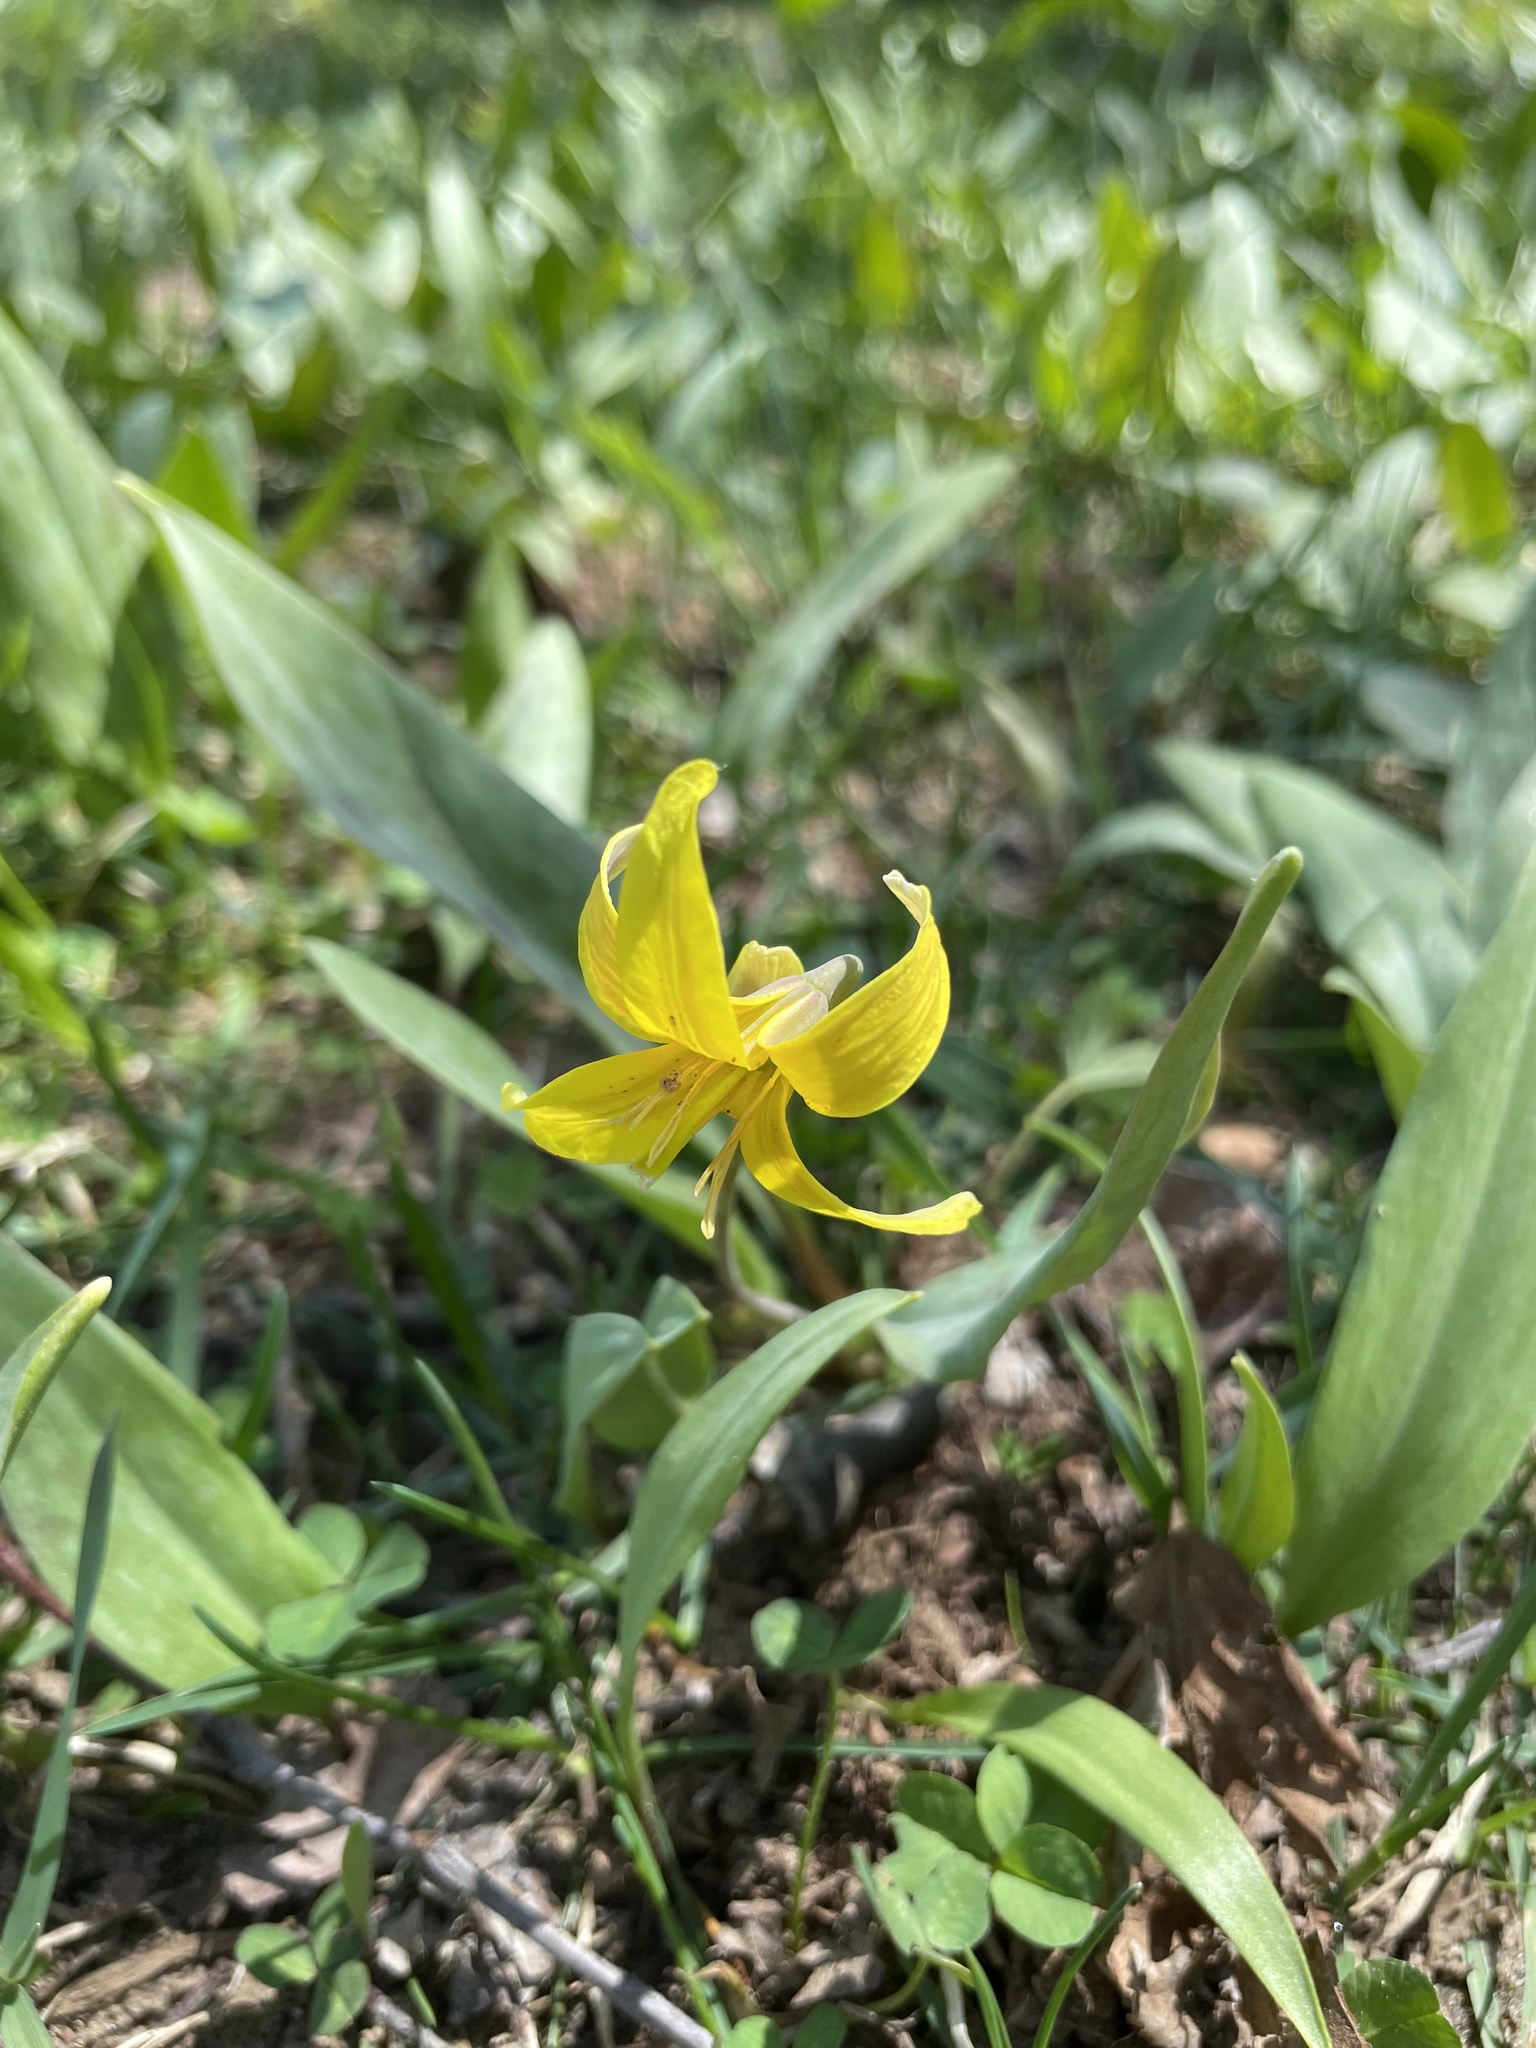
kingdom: Plantae
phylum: Tracheophyta
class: Liliopsida
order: Liliales
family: Liliaceae
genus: Erythronium
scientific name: Erythronium americanum
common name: Yellow adder's-tongue
